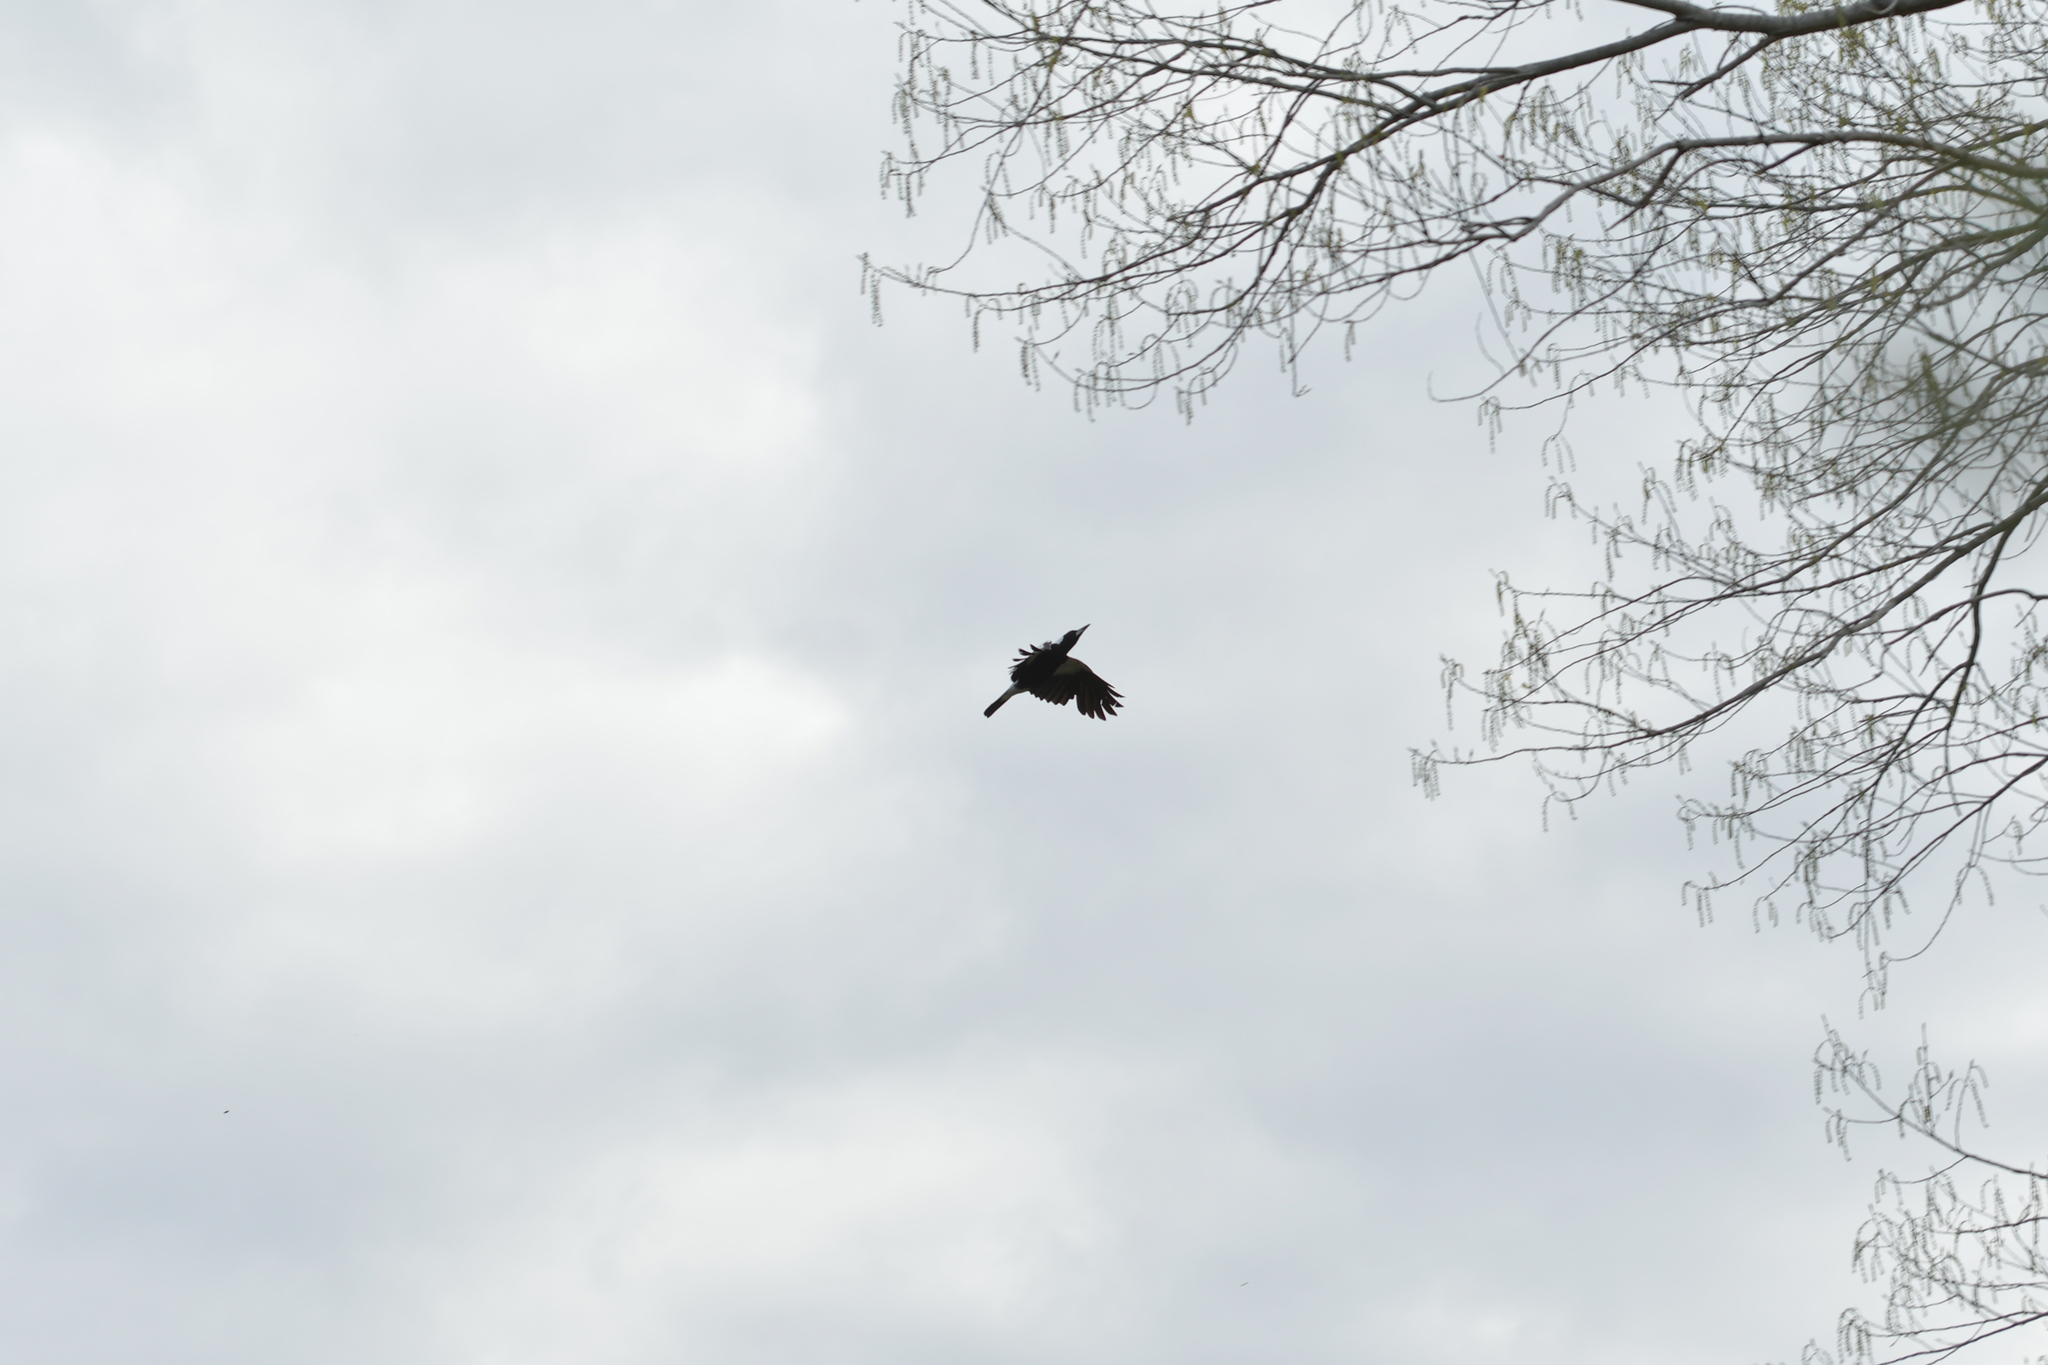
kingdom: Animalia
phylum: Chordata
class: Aves
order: Passeriformes
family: Cracticidae
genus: Gymnorhina
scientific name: Gymnorhina tibicen
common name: Australian magpie
